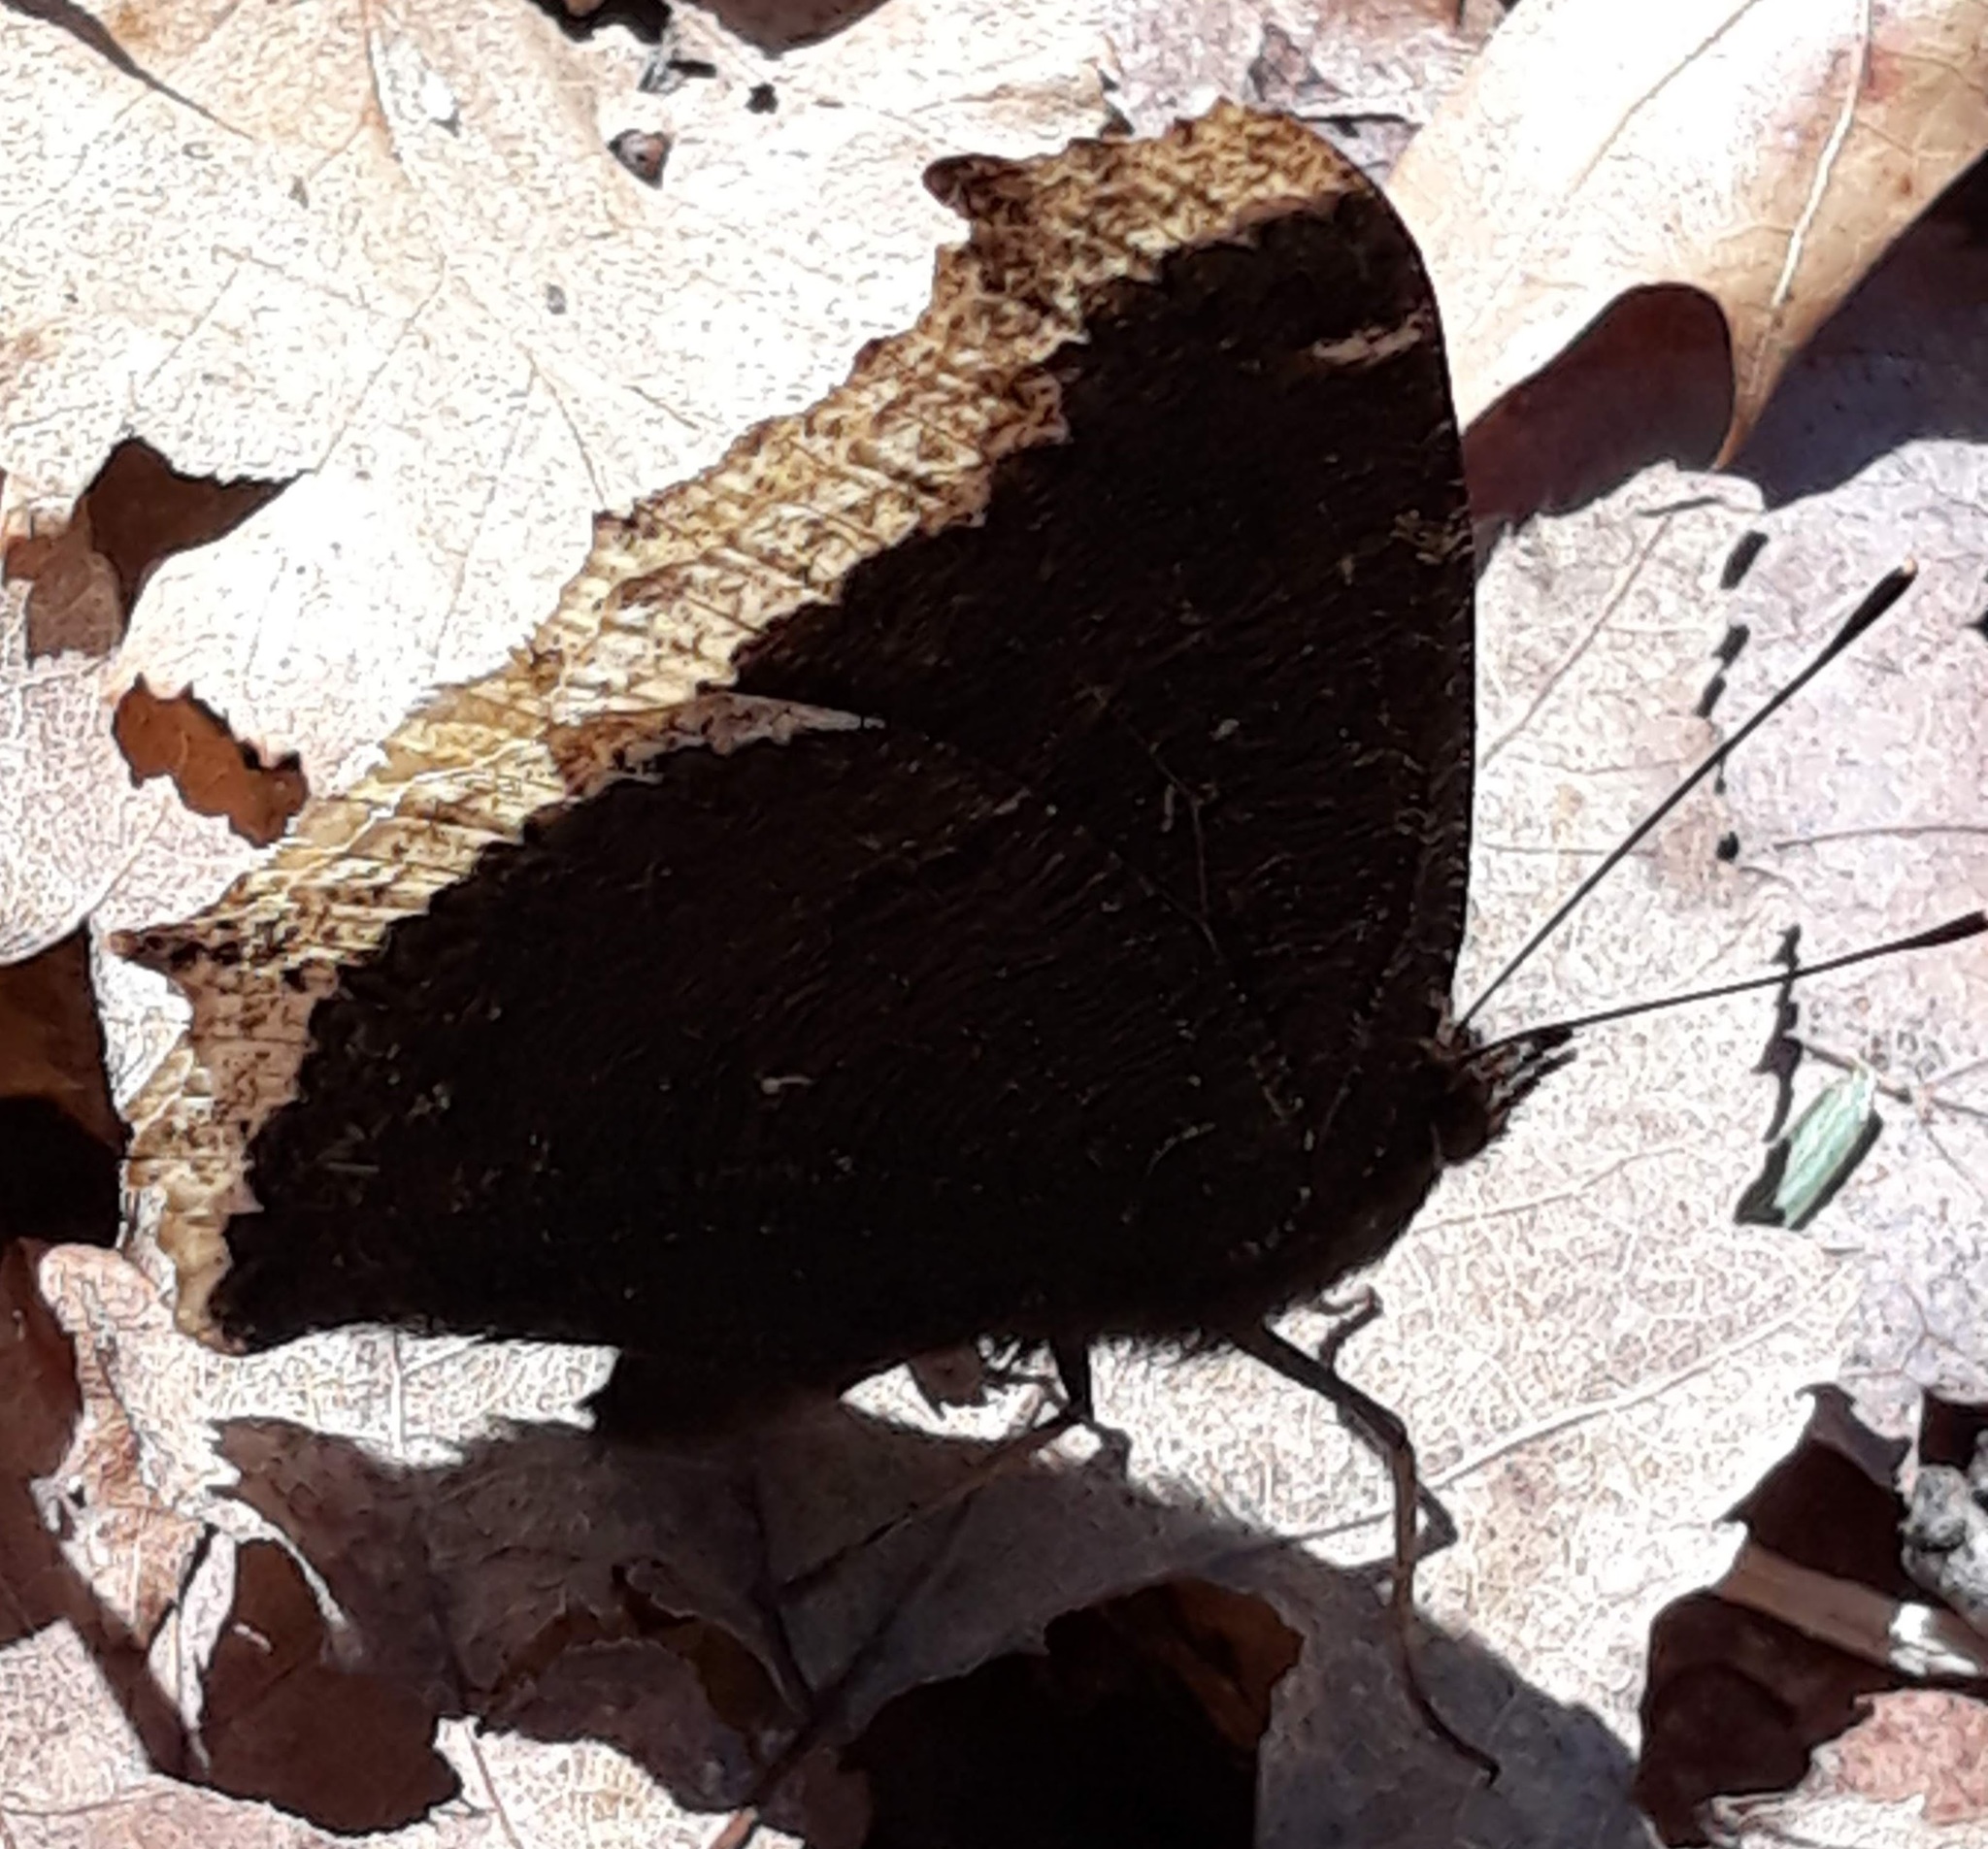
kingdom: Animalia
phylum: Arthropoda
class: Insecta
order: Lepidoptera
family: Nymphalidae
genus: Nymphalis
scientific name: Nymphalis antiopa
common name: Camberwell beauty
